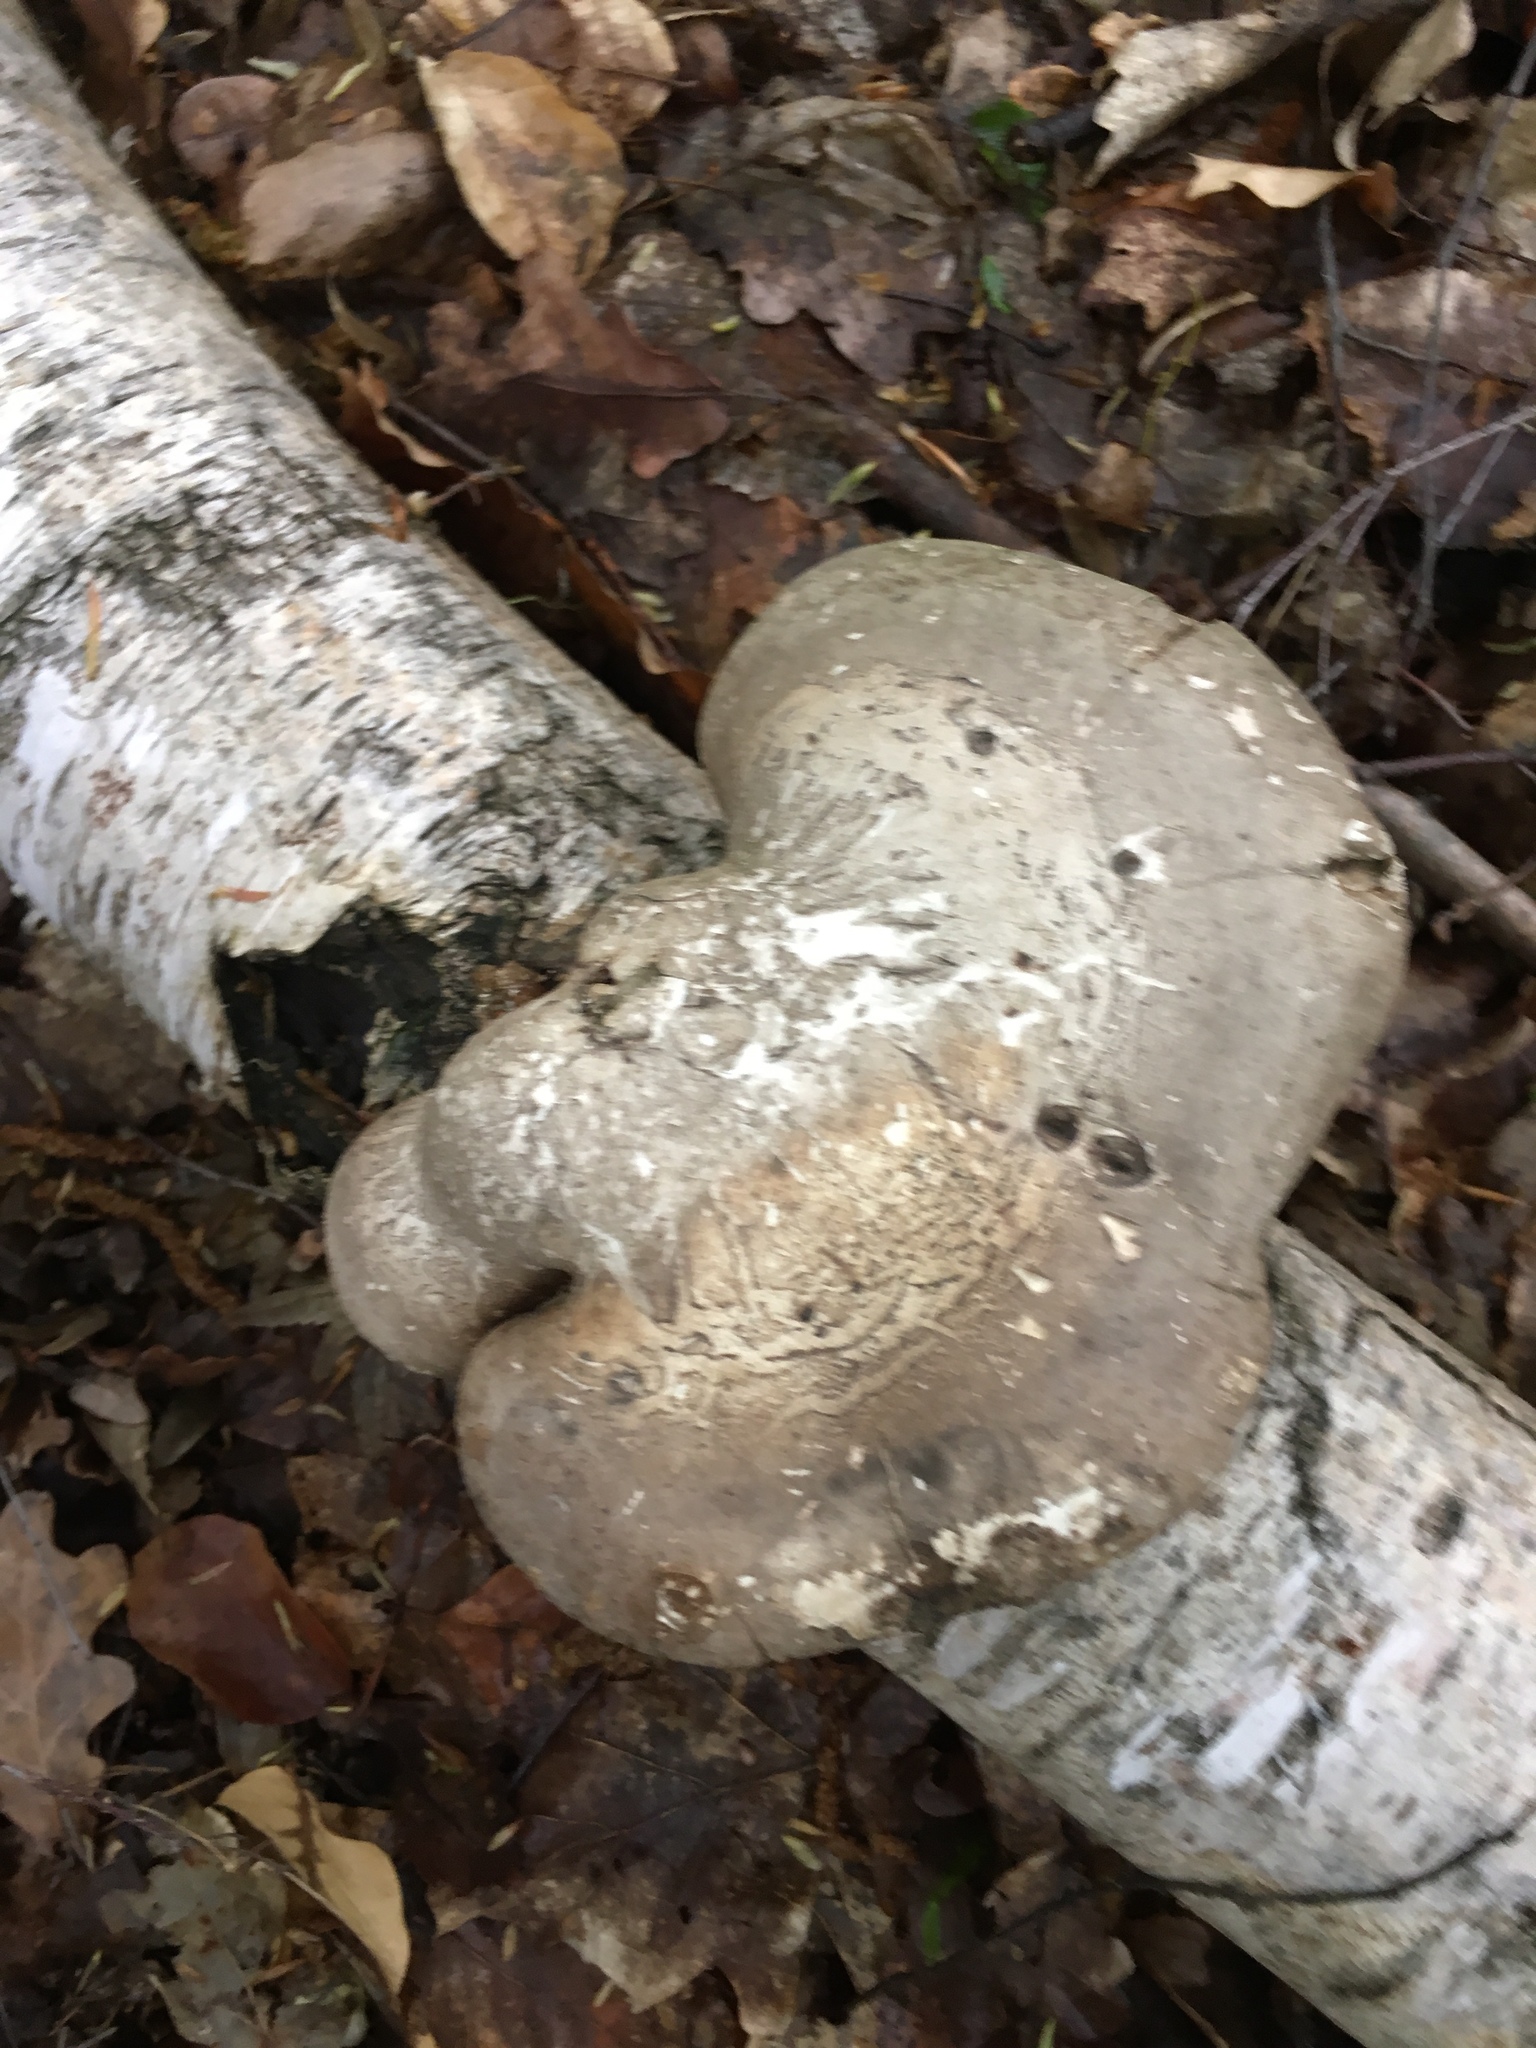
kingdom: Fungi
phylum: Basidiomycota
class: Agaricomycetes
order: Polyporales
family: Fomitopsidaceae
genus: Fomitopsis
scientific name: Fomitopsis betulina
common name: Birch polypore
